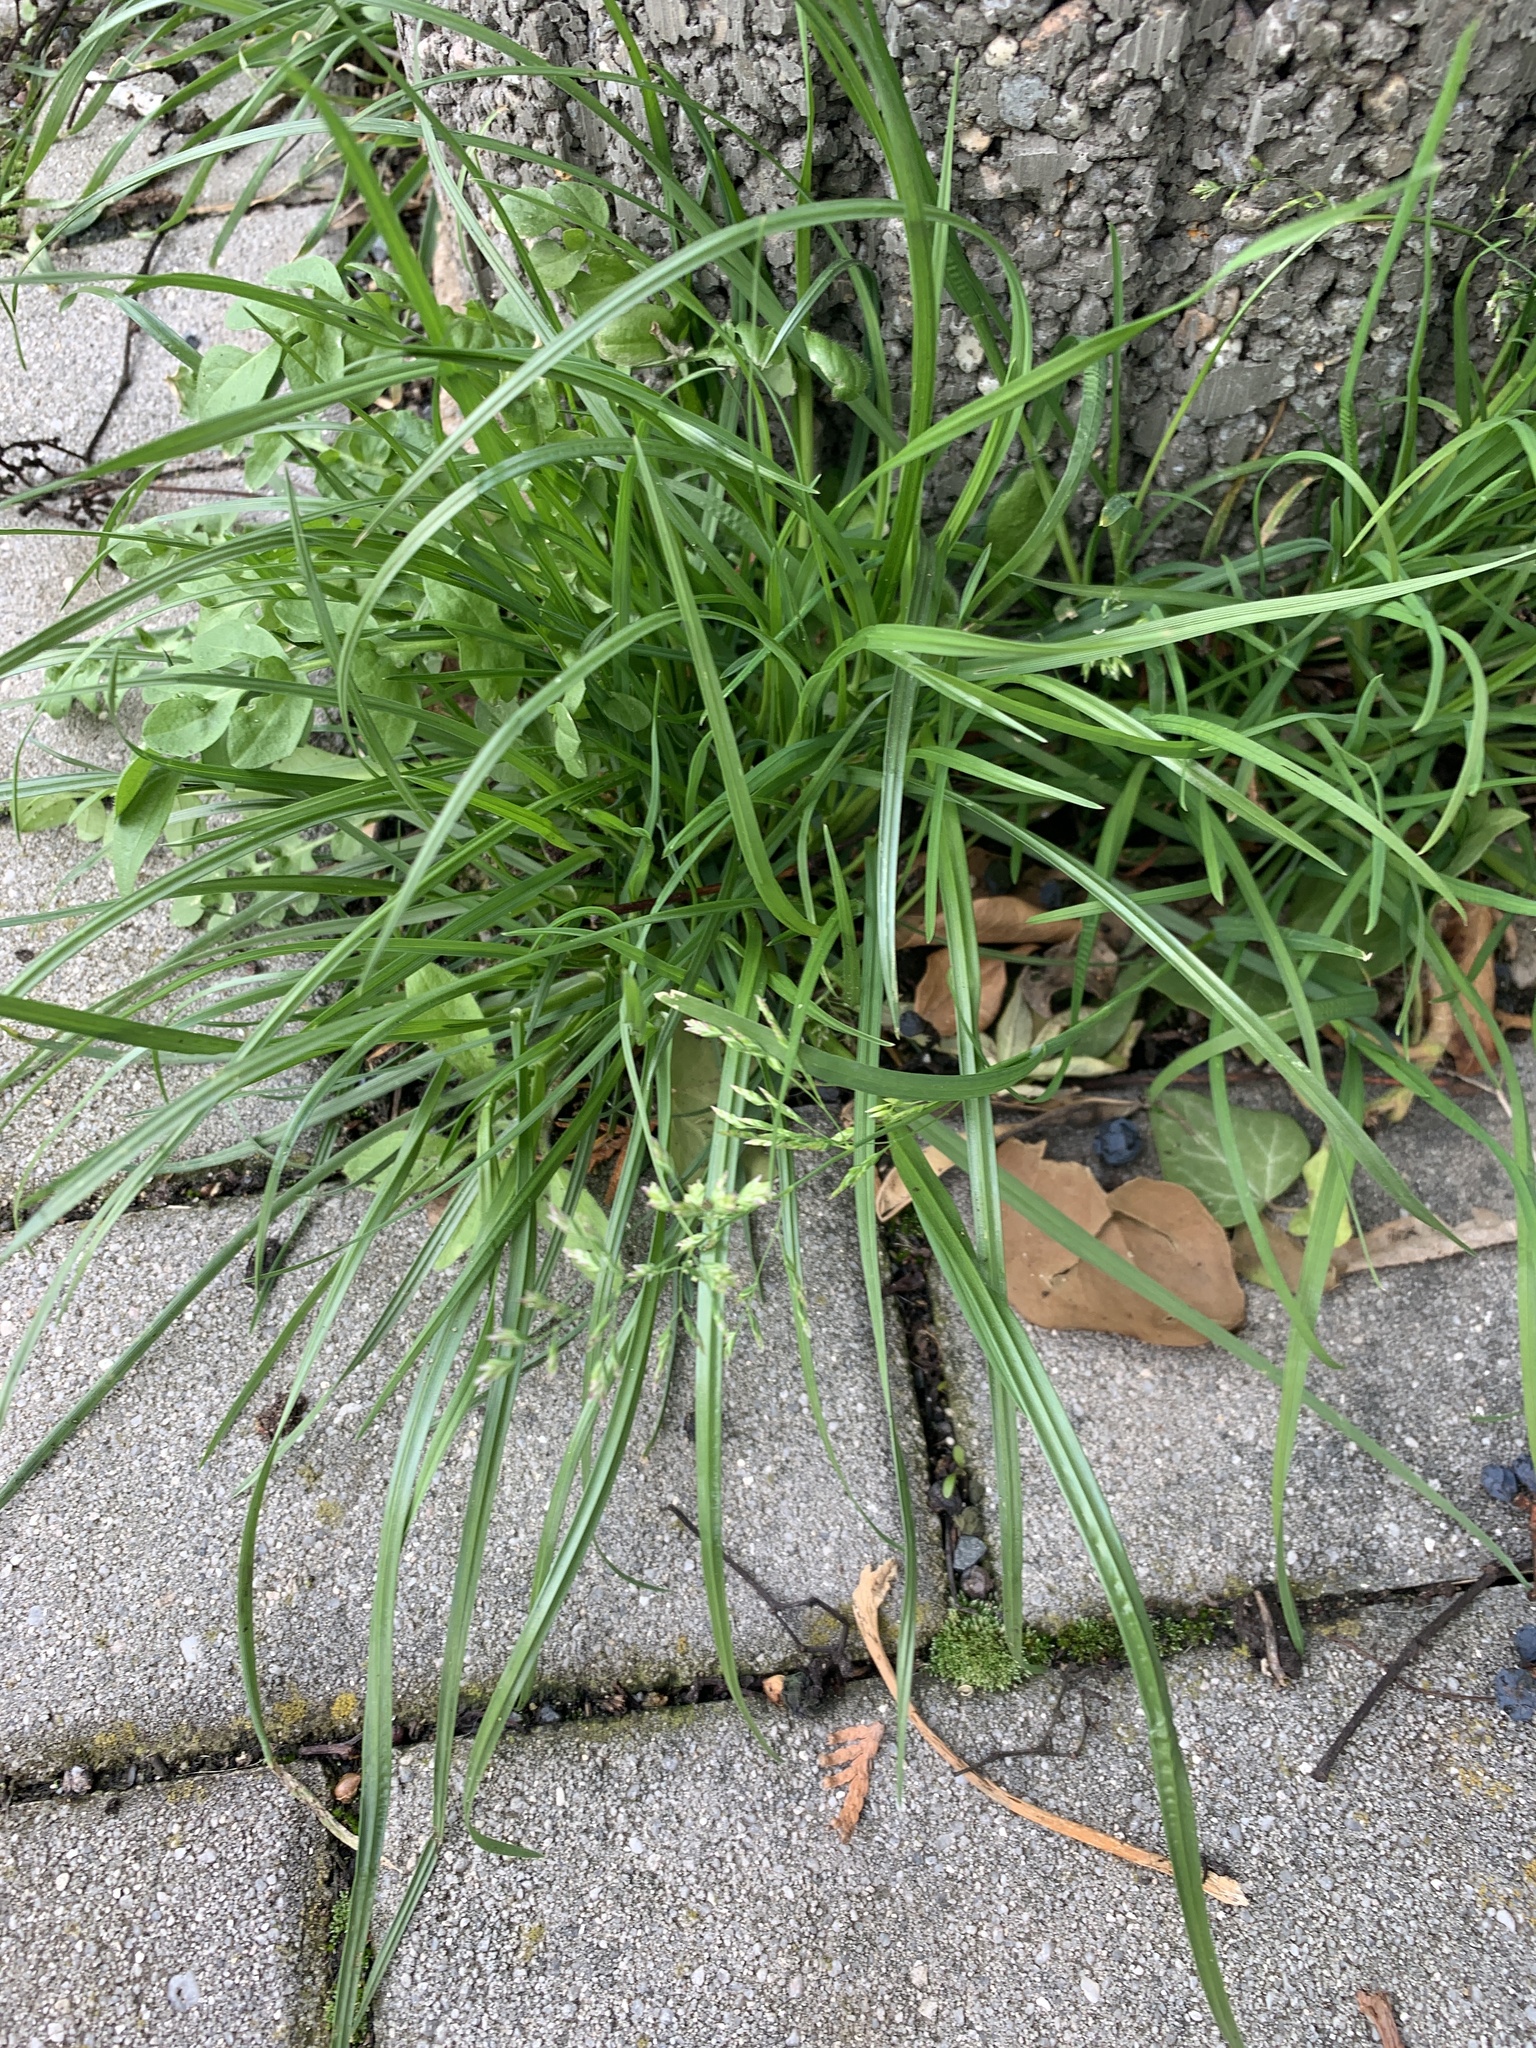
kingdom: Plantae
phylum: Tracheophyta
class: Liliopsida
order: Poales
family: Poaceae
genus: Poa
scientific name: Poa annua
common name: Annual bluegrass
